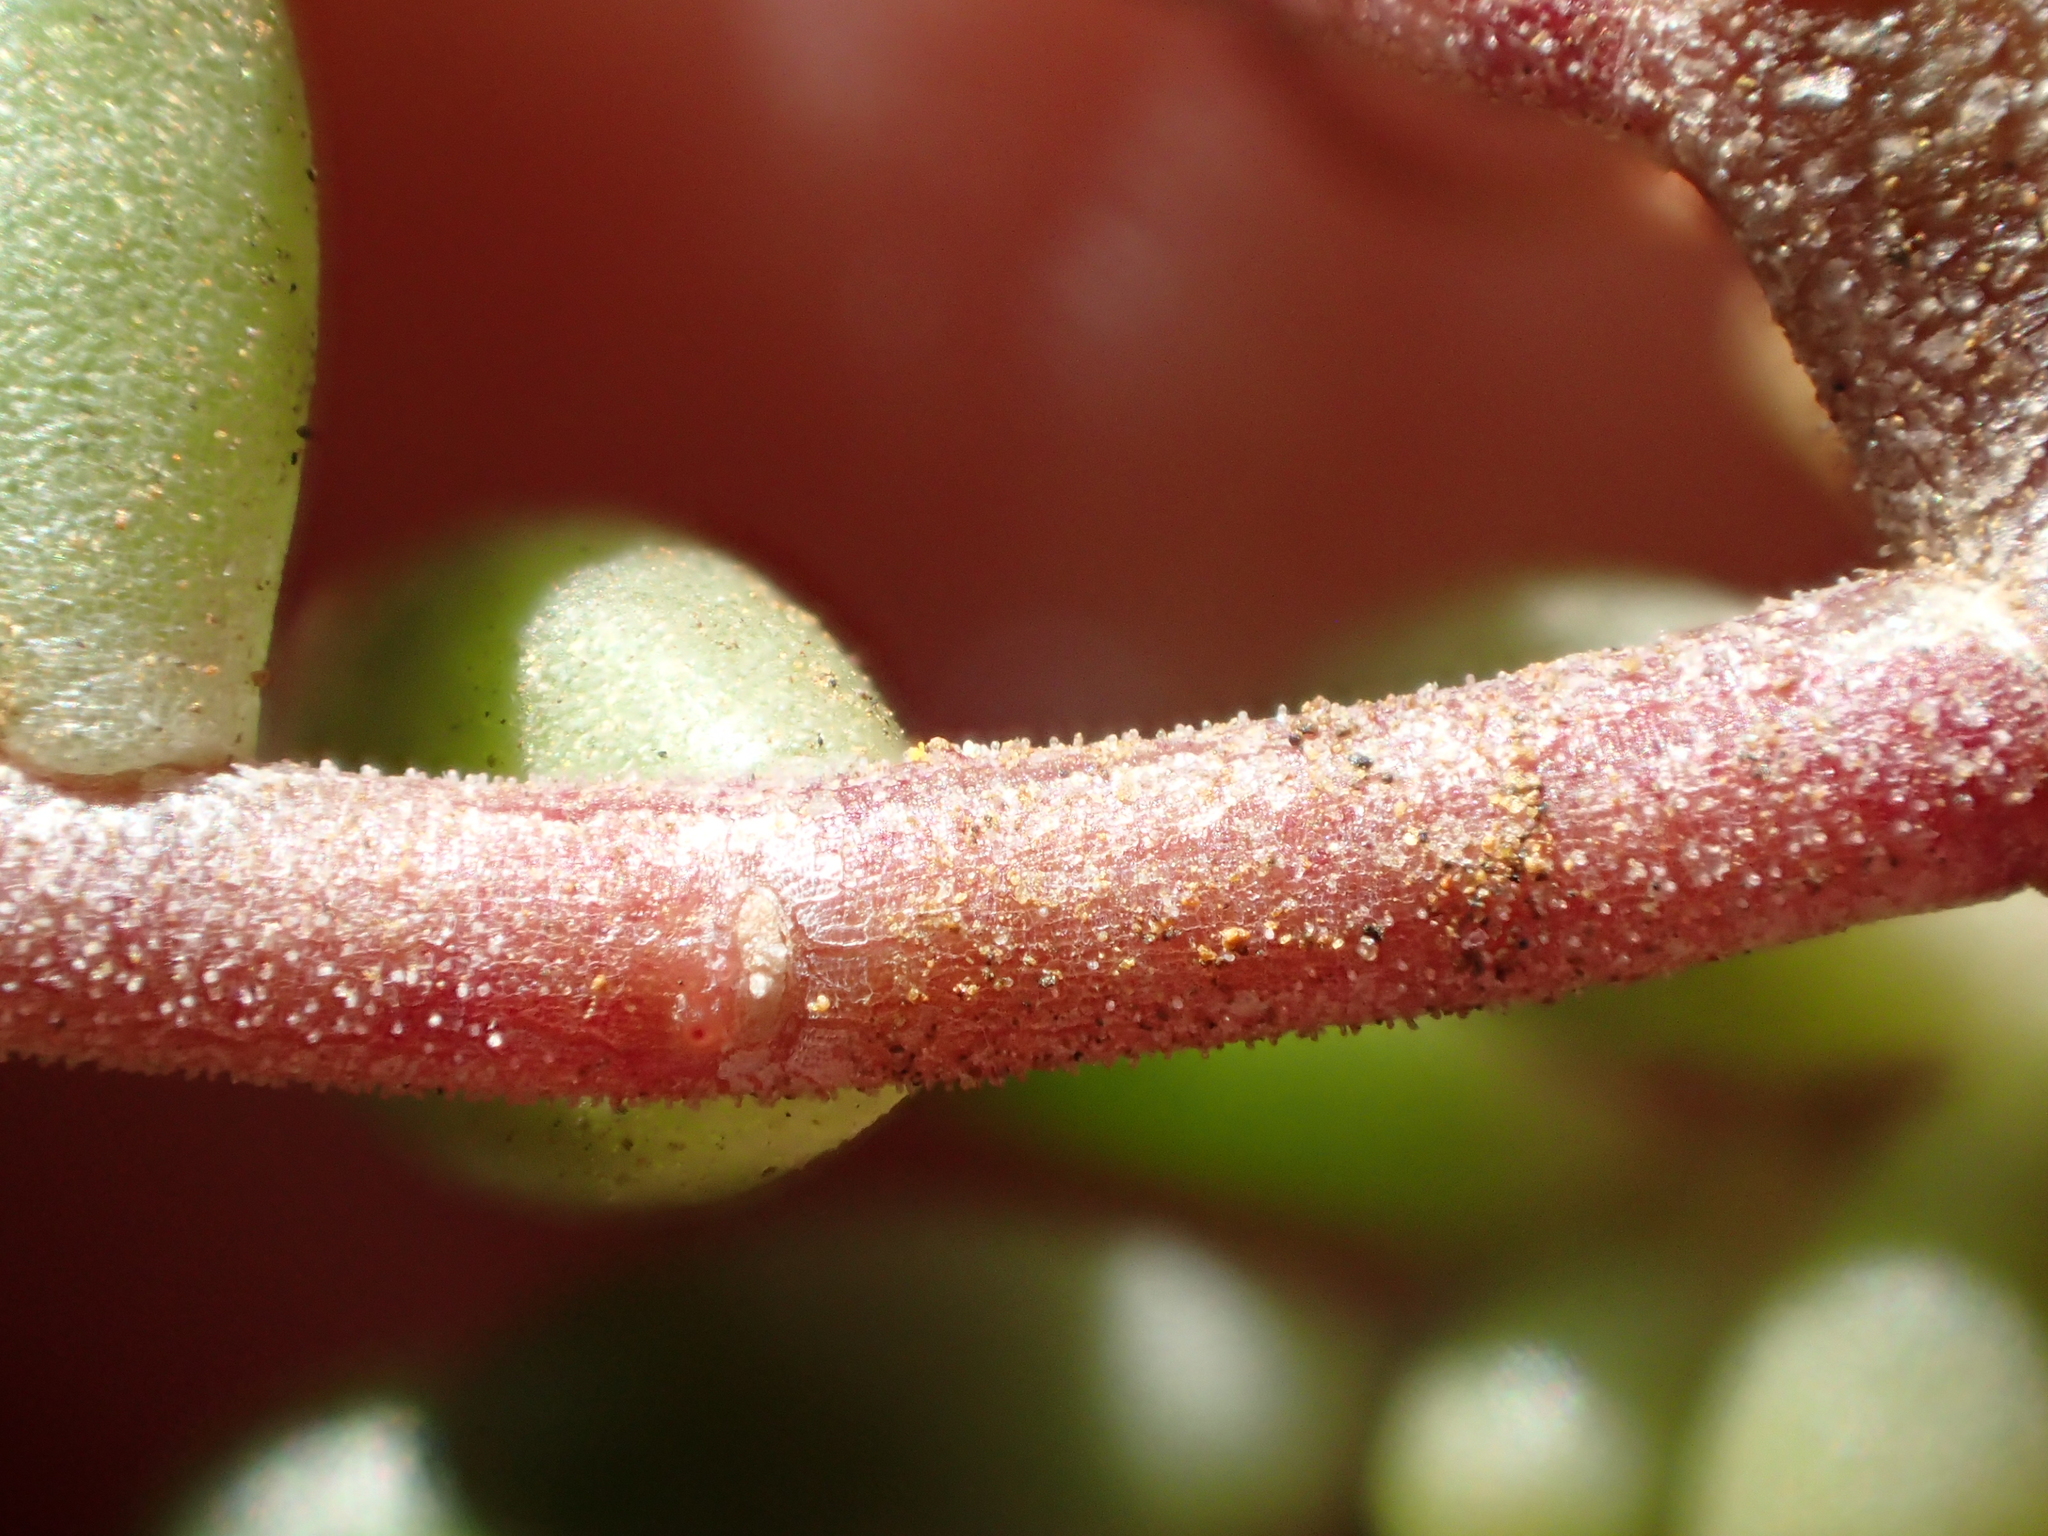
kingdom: Plantae
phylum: Tracheophyta
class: Magnoliopsida
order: Saxifragales
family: Crassulaceae
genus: Sedum
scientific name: Sedum album
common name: White stonecrop
